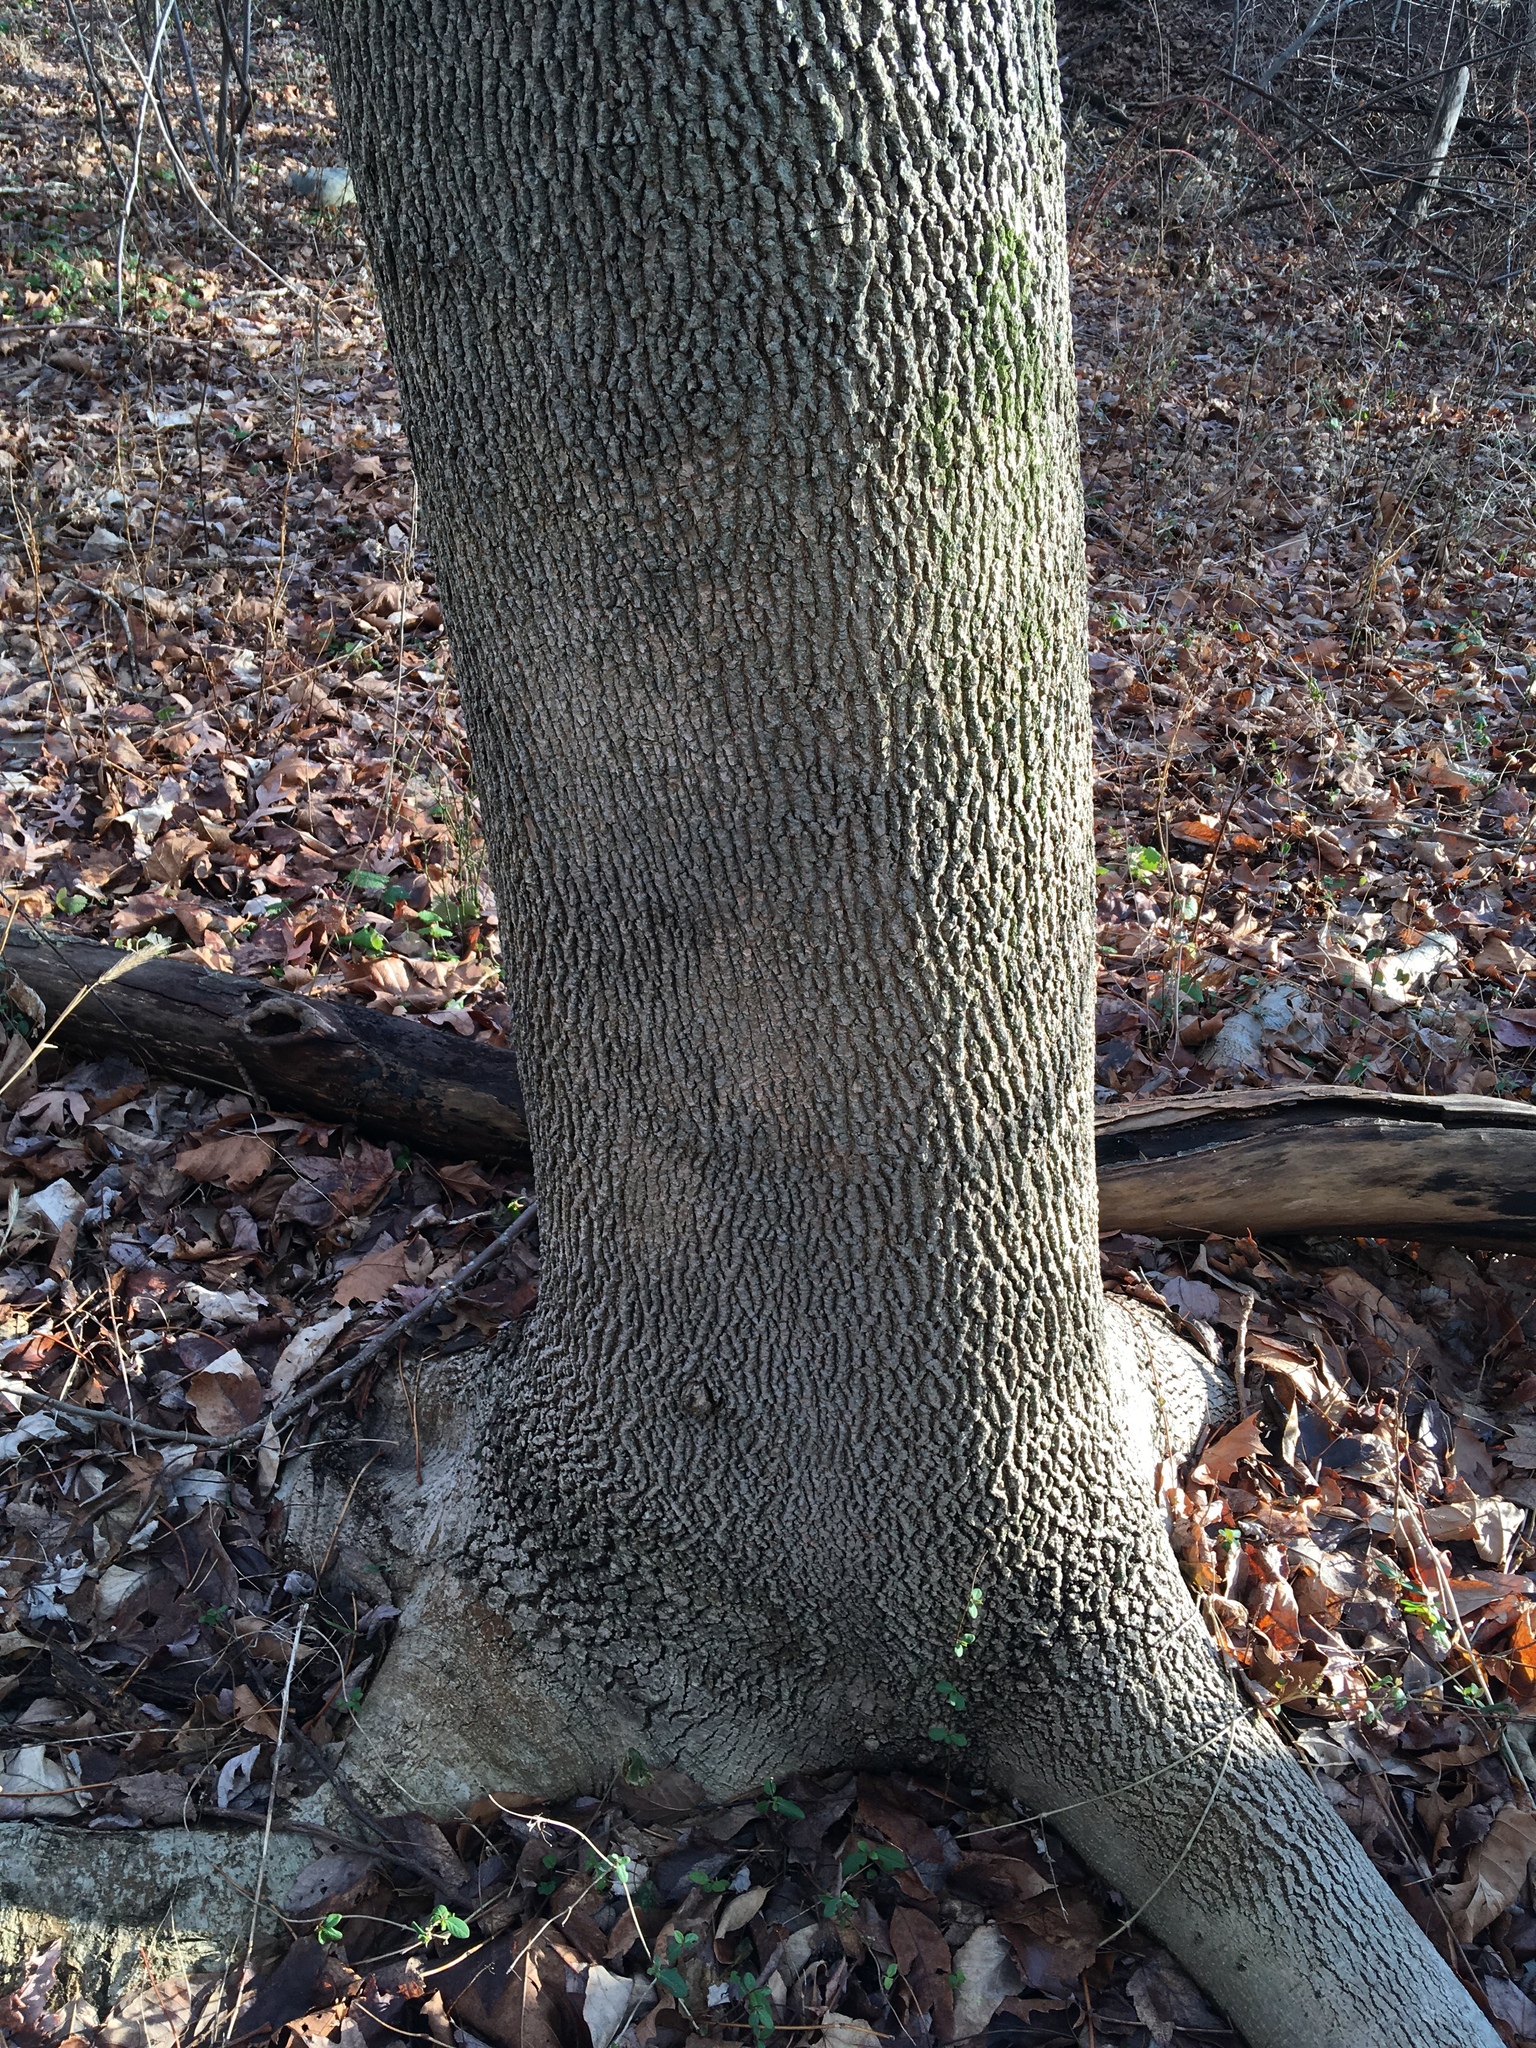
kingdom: Plantae
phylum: Tracheophyta
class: Magnoliopsida
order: Lamiales
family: Oleaceae
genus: Fraxinus
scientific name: Fraxinus pennsylvanica
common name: Green ash
